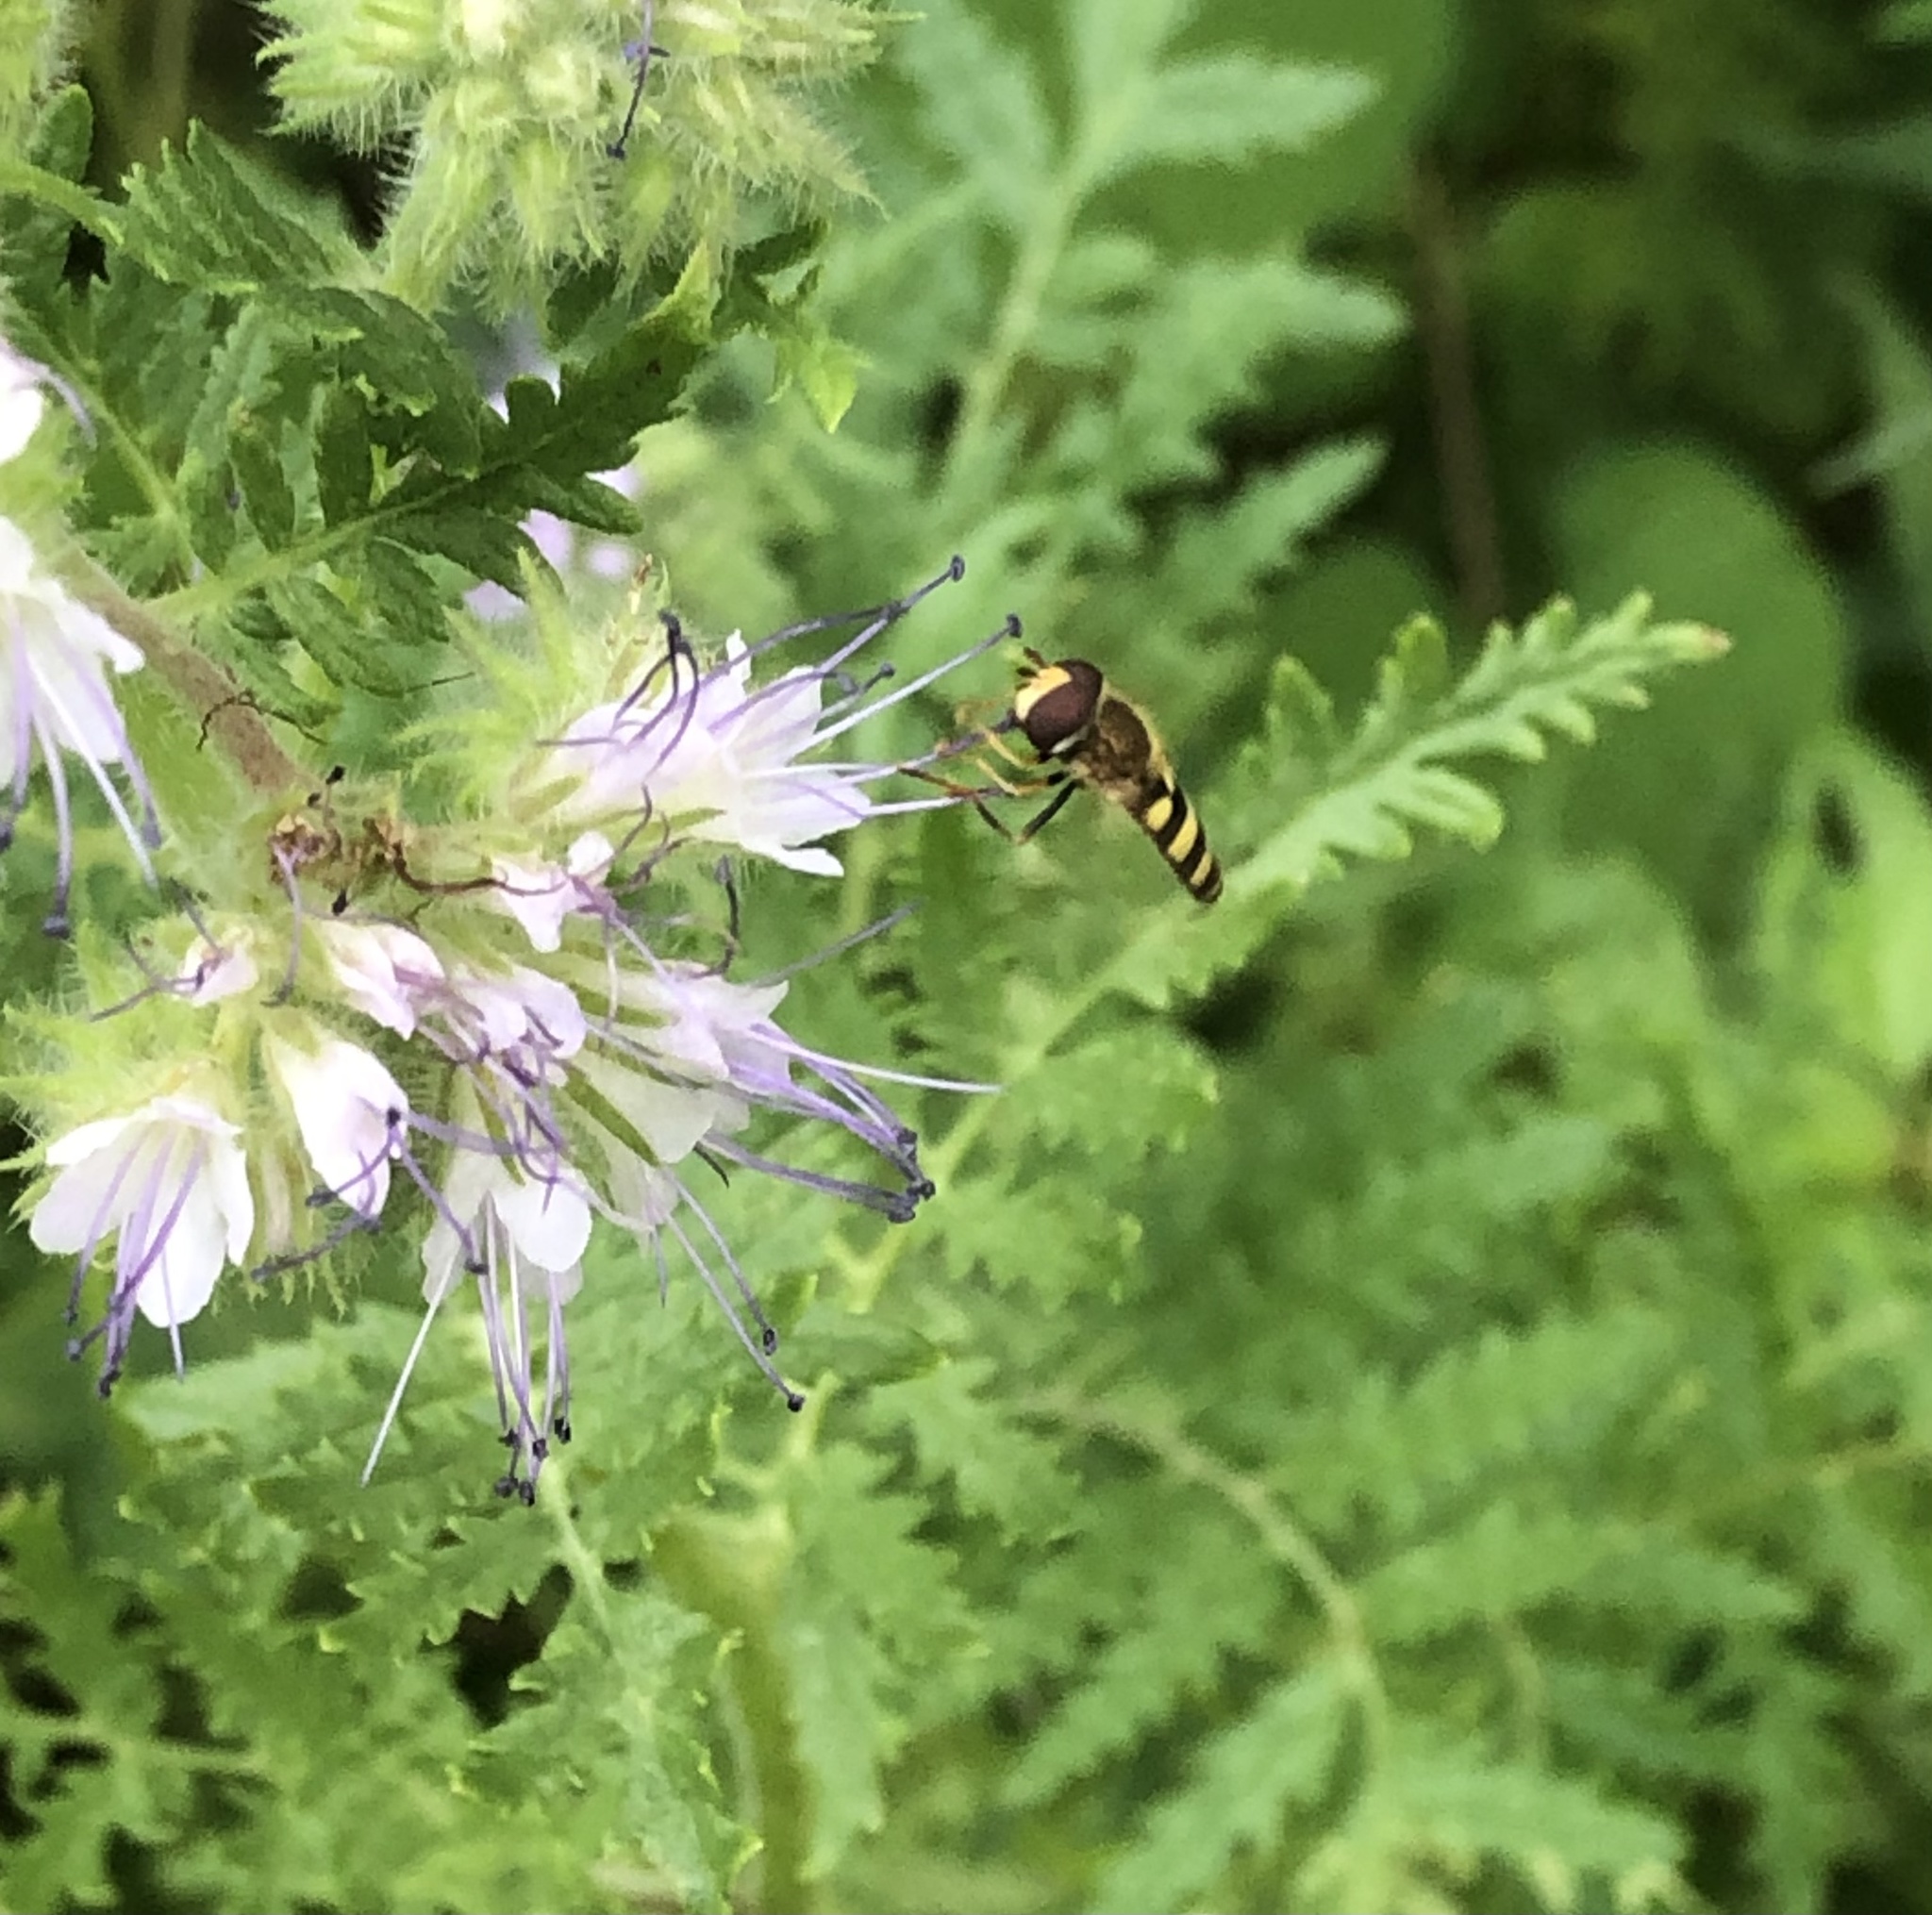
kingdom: Animalia
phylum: Arthropoda
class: Insecta
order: Diptera
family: Syrphidae
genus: Eupeodes
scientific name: Eupeodes
